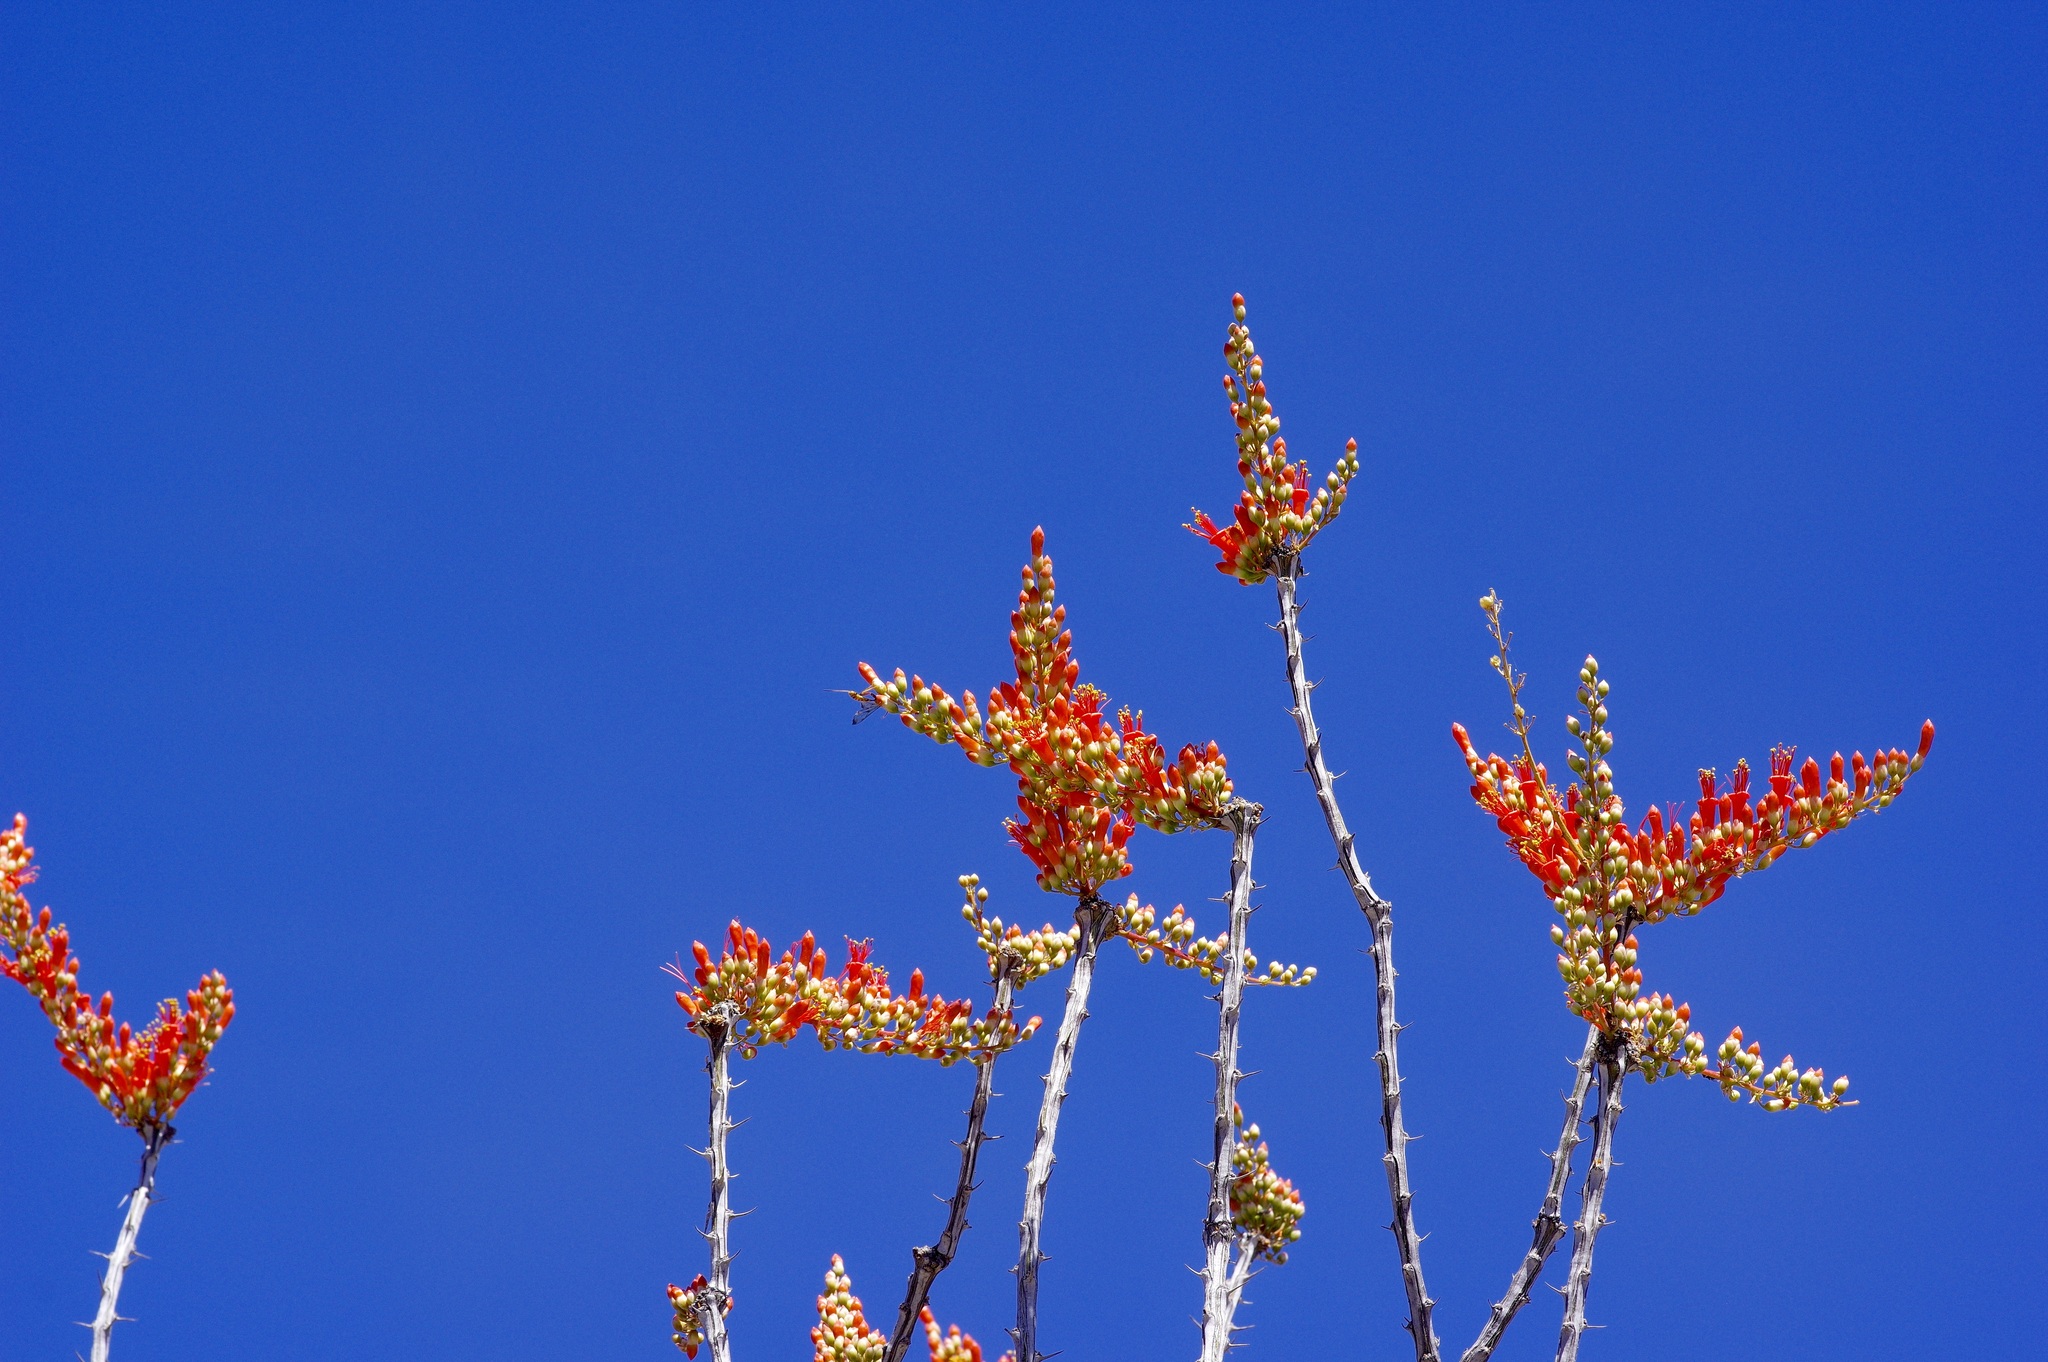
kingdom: Plantae
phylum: Tracheophyta
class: Magnoliopsida
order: Ericales
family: Fouquieriaceae
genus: Fouquieria
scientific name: Fouquieria splendens
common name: Vine-cactus
